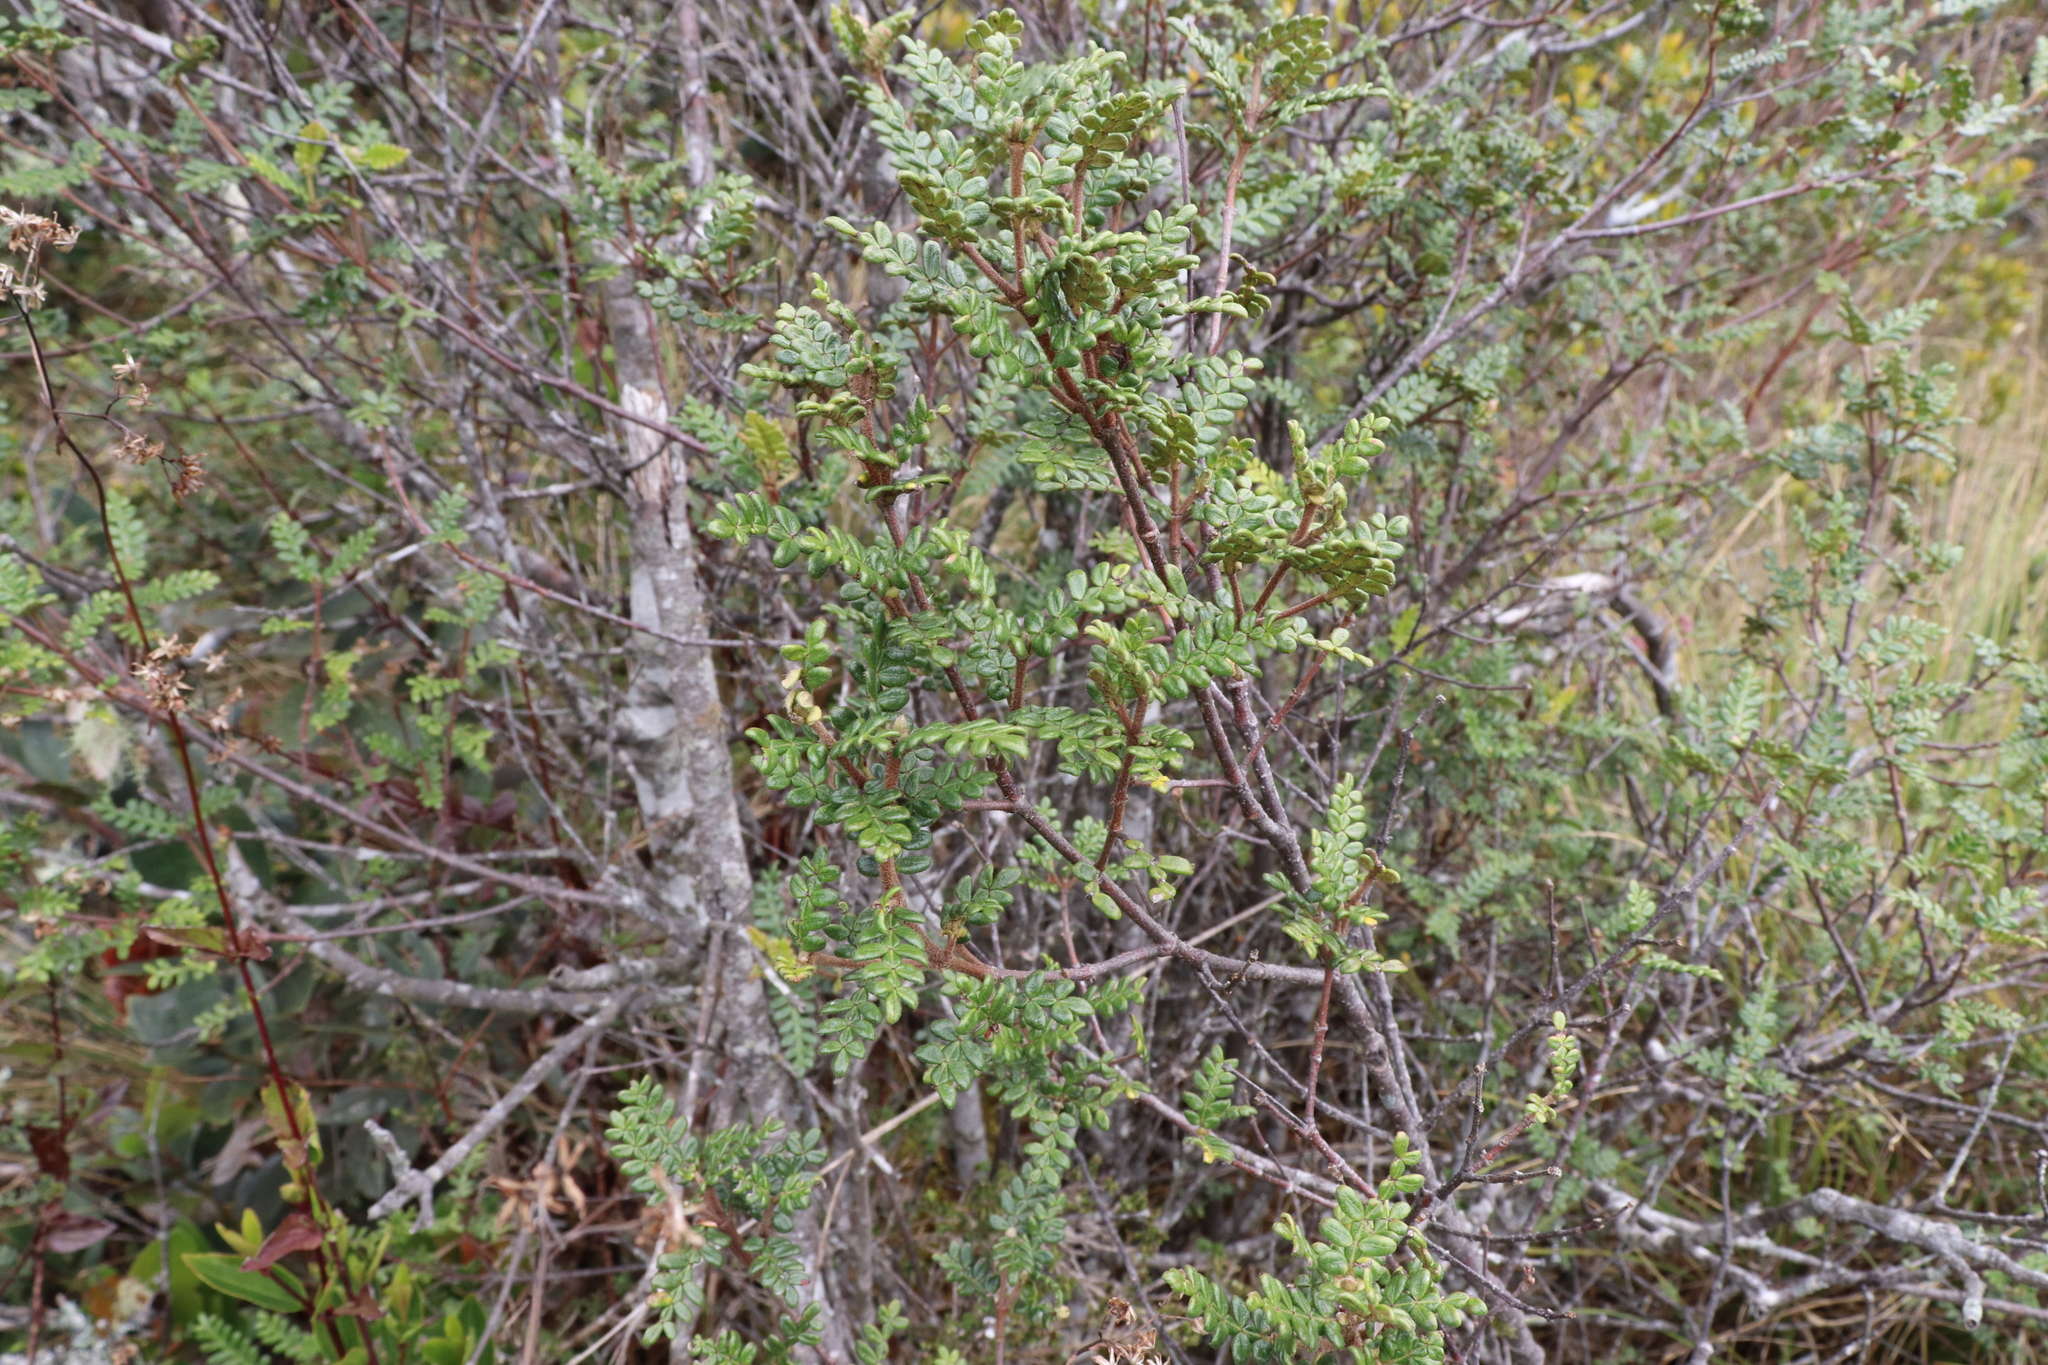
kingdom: Plantae
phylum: Tracheophyta
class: Magnoliopsida
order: Oxalidales
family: Cunoniaceae
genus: Weinmannia
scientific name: Weinmannia tomentosa
